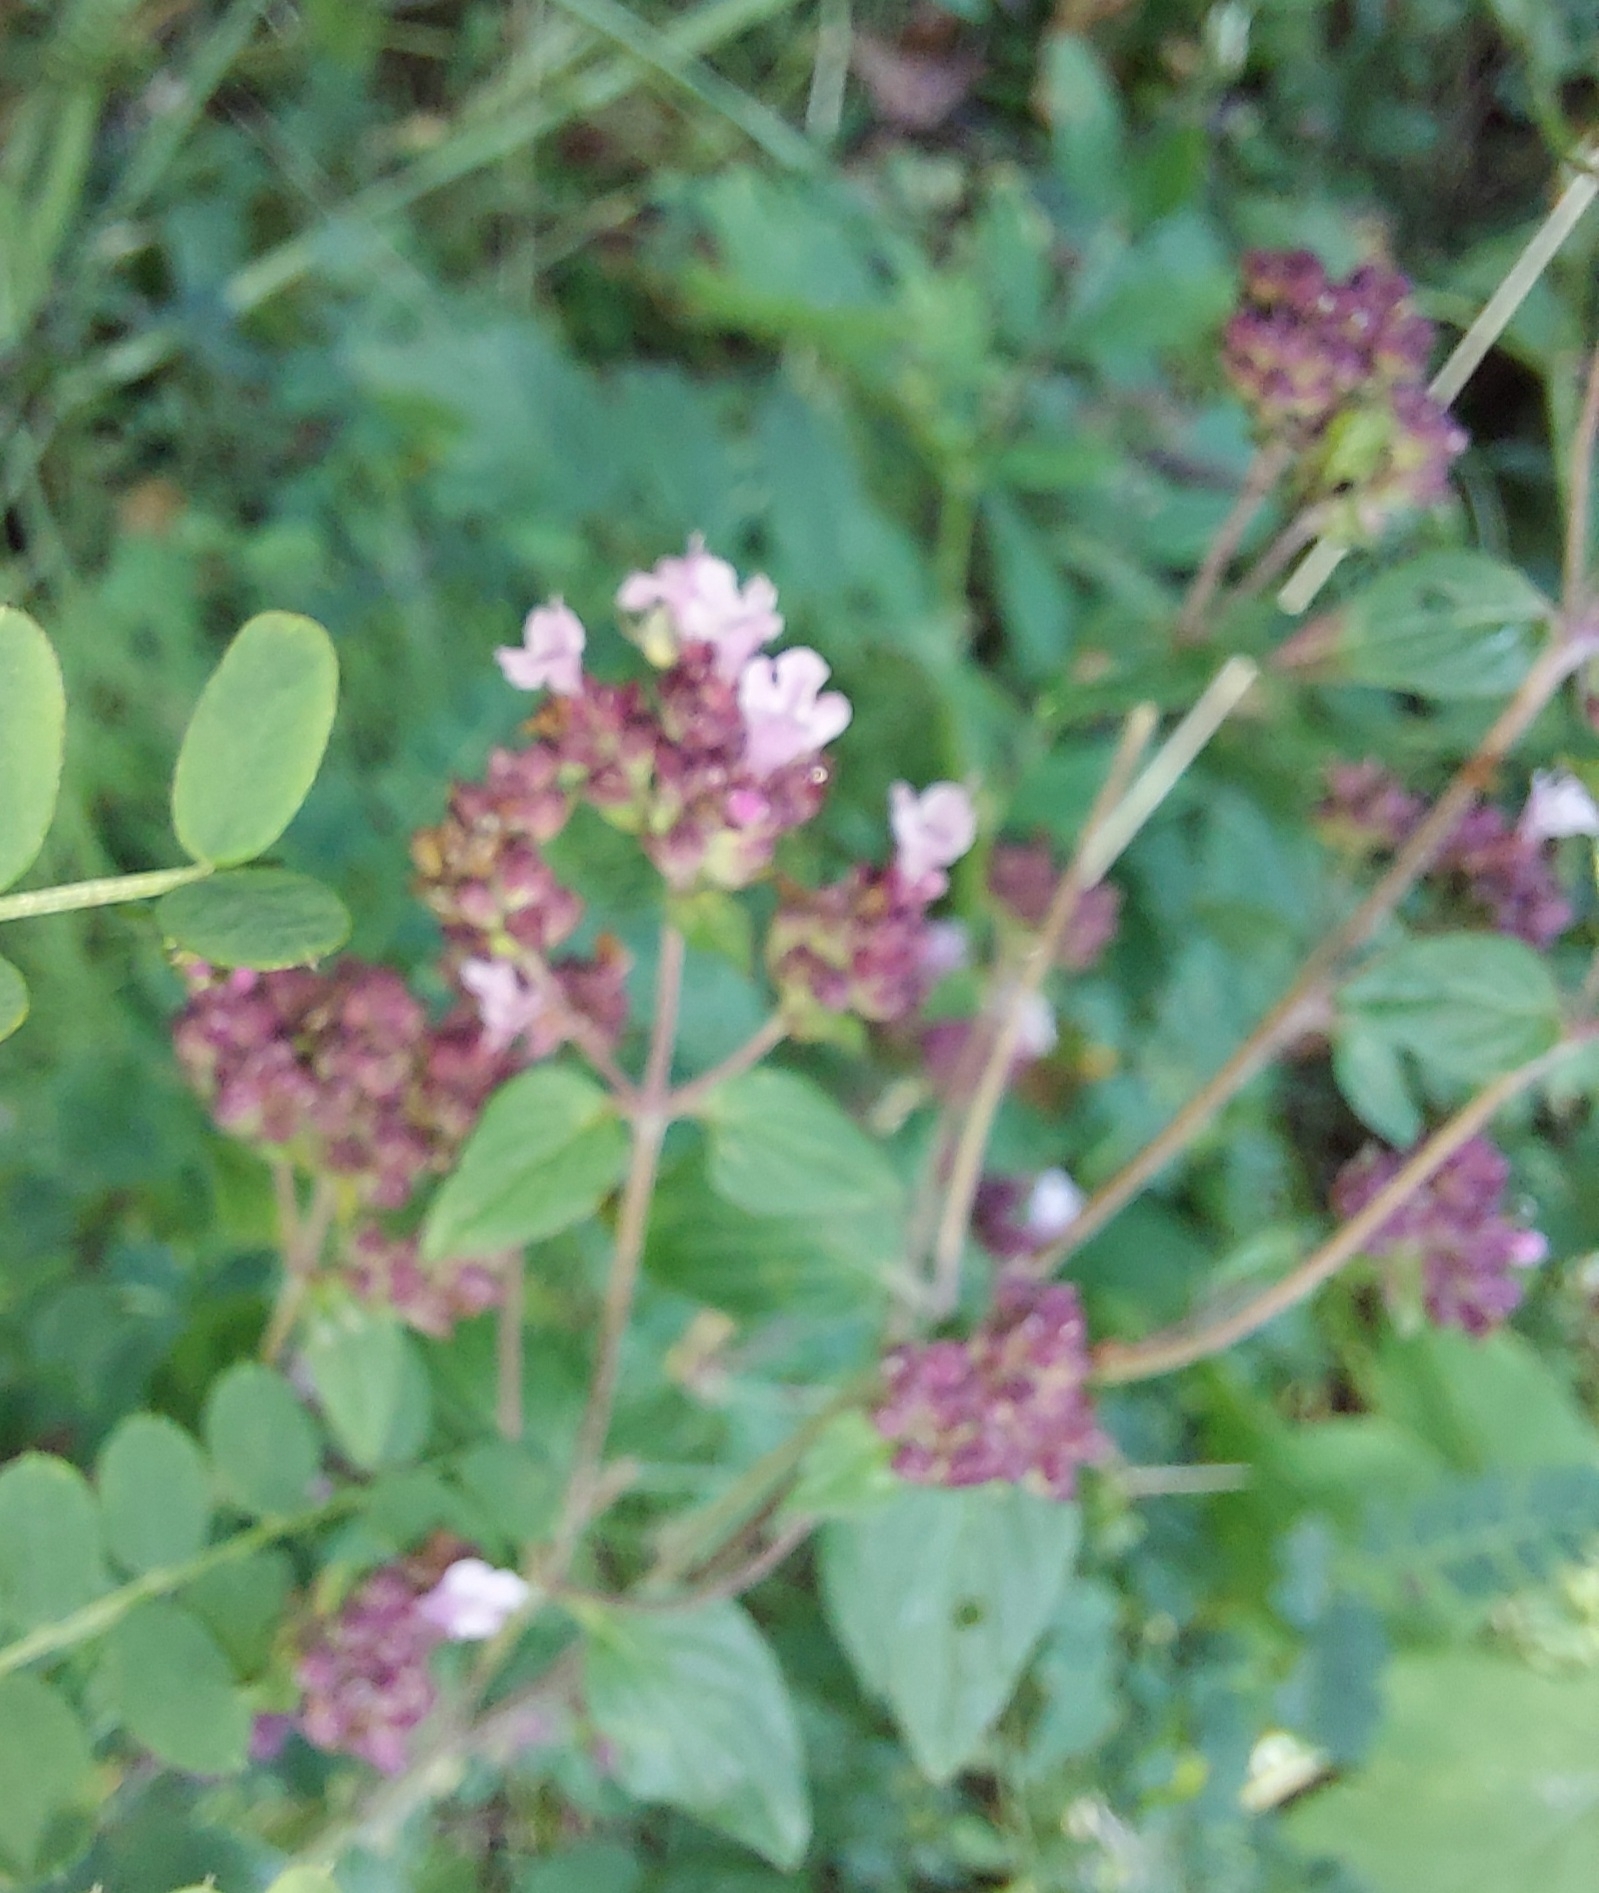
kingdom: Plantae
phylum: Tracheophyta
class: Magnoliopsida
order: Lamiales
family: Lamiaceae
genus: Origanum
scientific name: Origanum vulgare
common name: Wild marjoram
